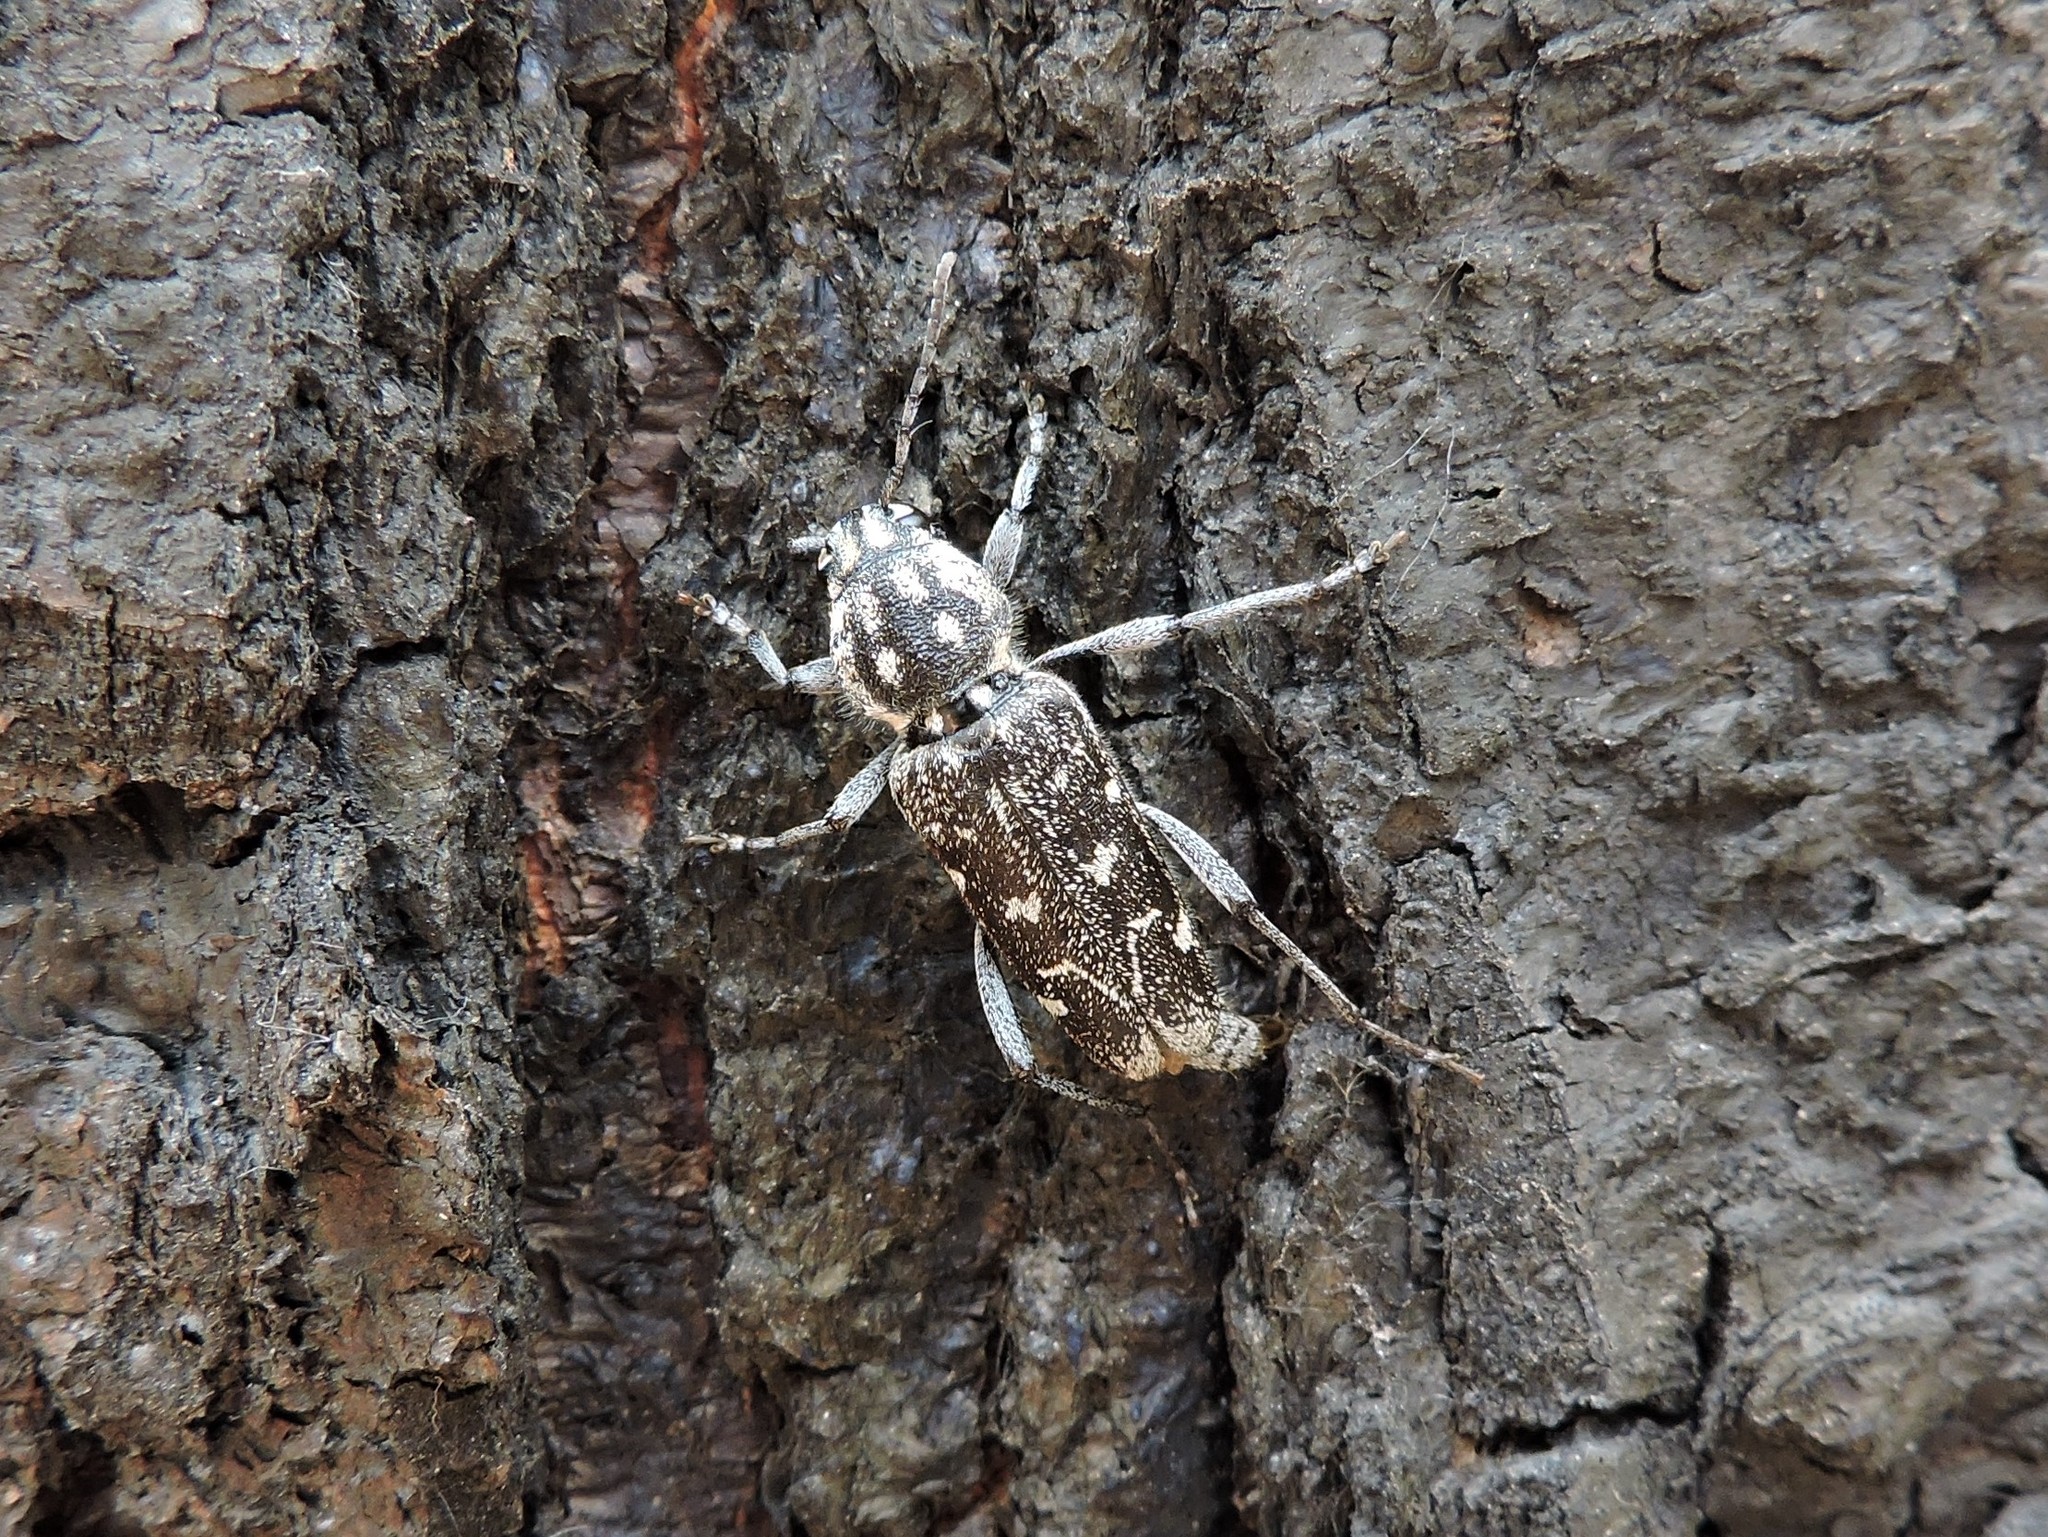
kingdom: Animalia
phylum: Arthropoda
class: Insecta
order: Coleoptera
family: Cerambycidae
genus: Xylotrechus
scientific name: Xylotrechus rusticus
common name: Grey tiger long-horned beetle
